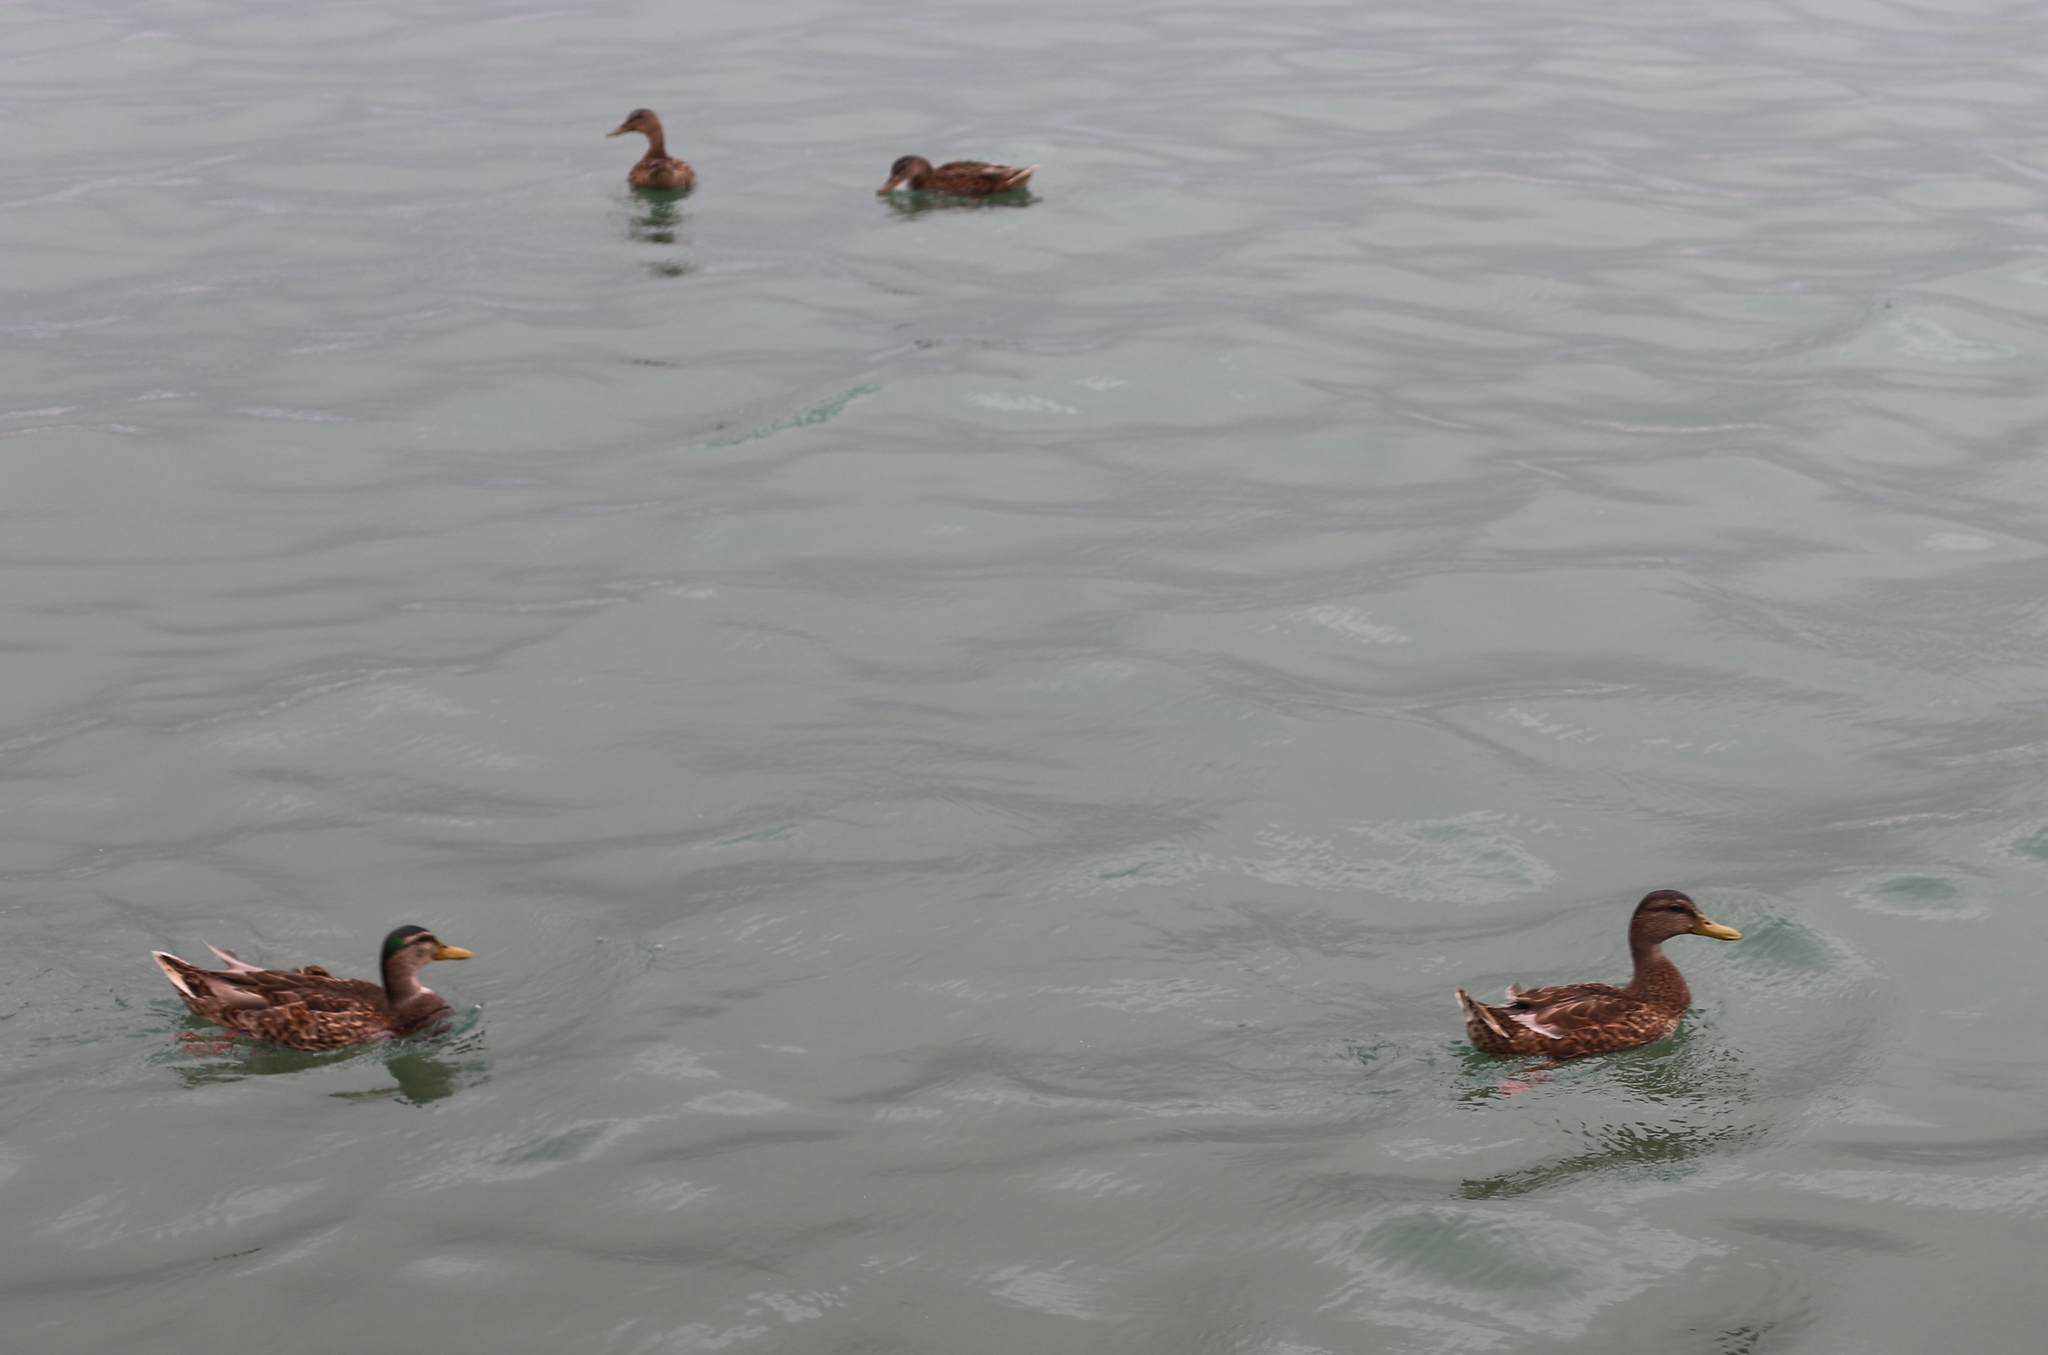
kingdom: Animalia
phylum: Chordata
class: Aves
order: Anseriformes
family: Anatidae
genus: Anas
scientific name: Anas platyrhynchos
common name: Mallard
